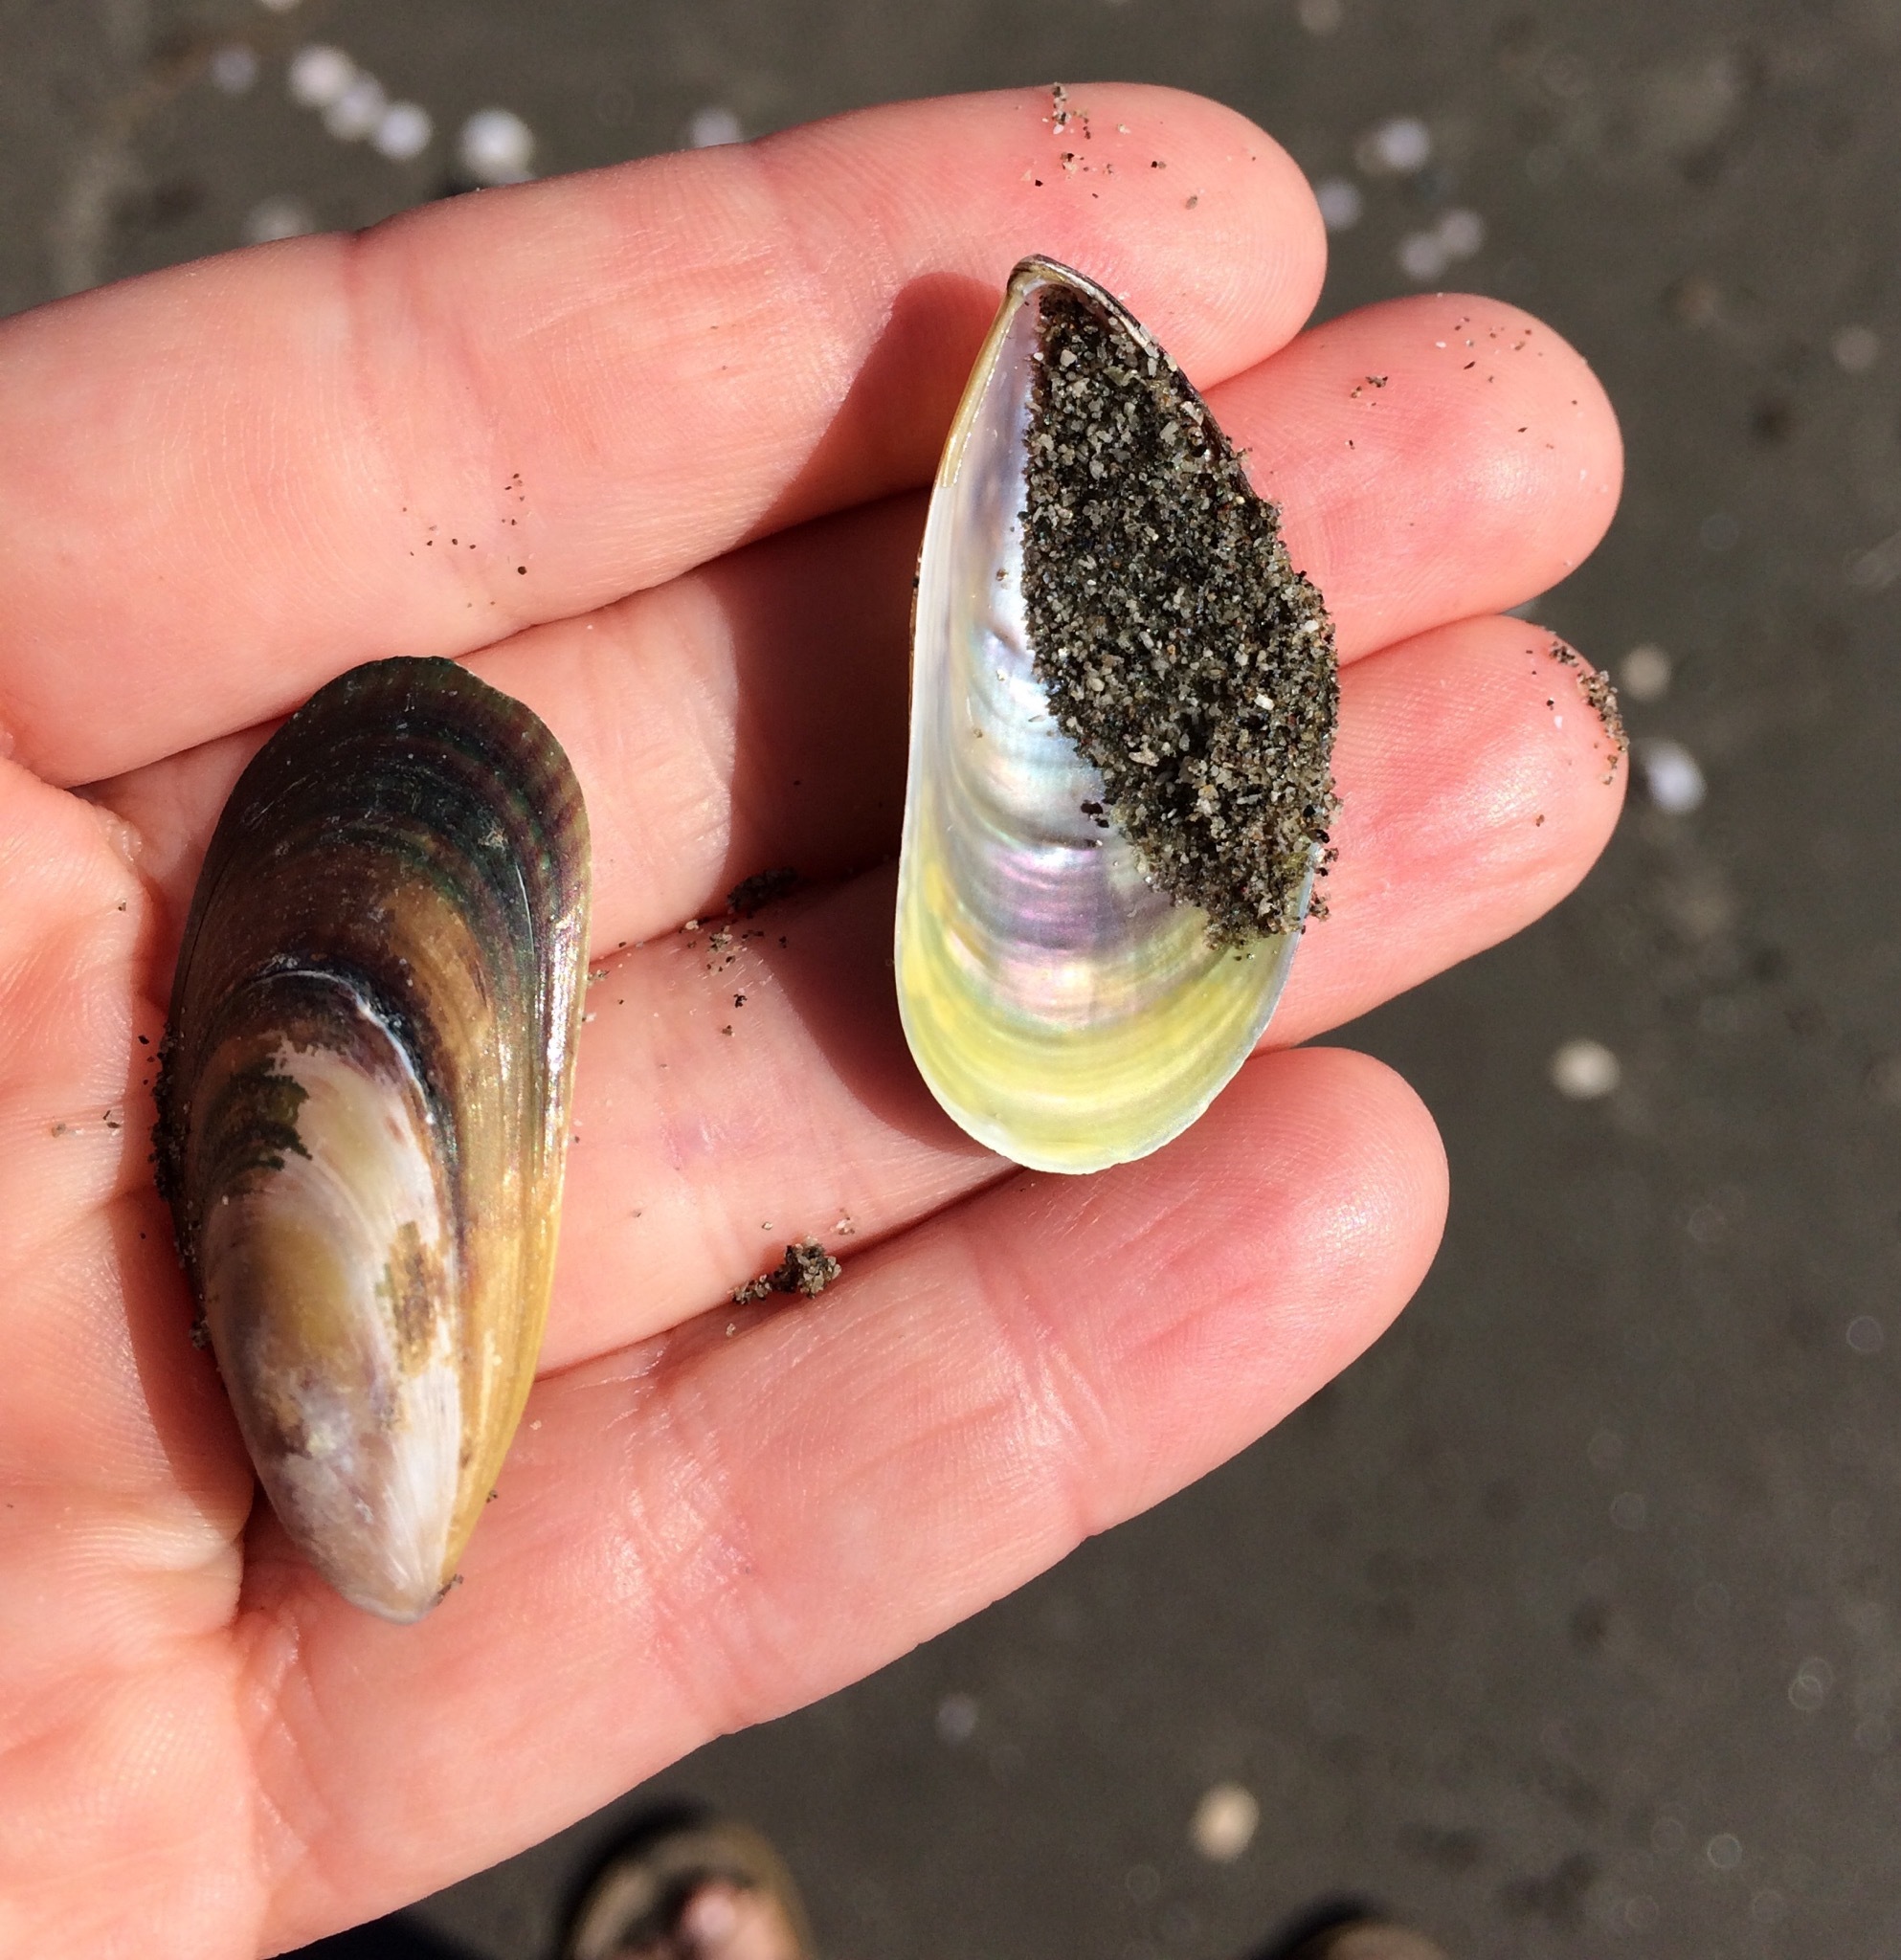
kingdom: Animalia
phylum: Mollusca
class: Bivalvia
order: Mytilida
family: Mytilidae
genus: Perna
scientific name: Perna canaliculus
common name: New zealand greenshelltm
